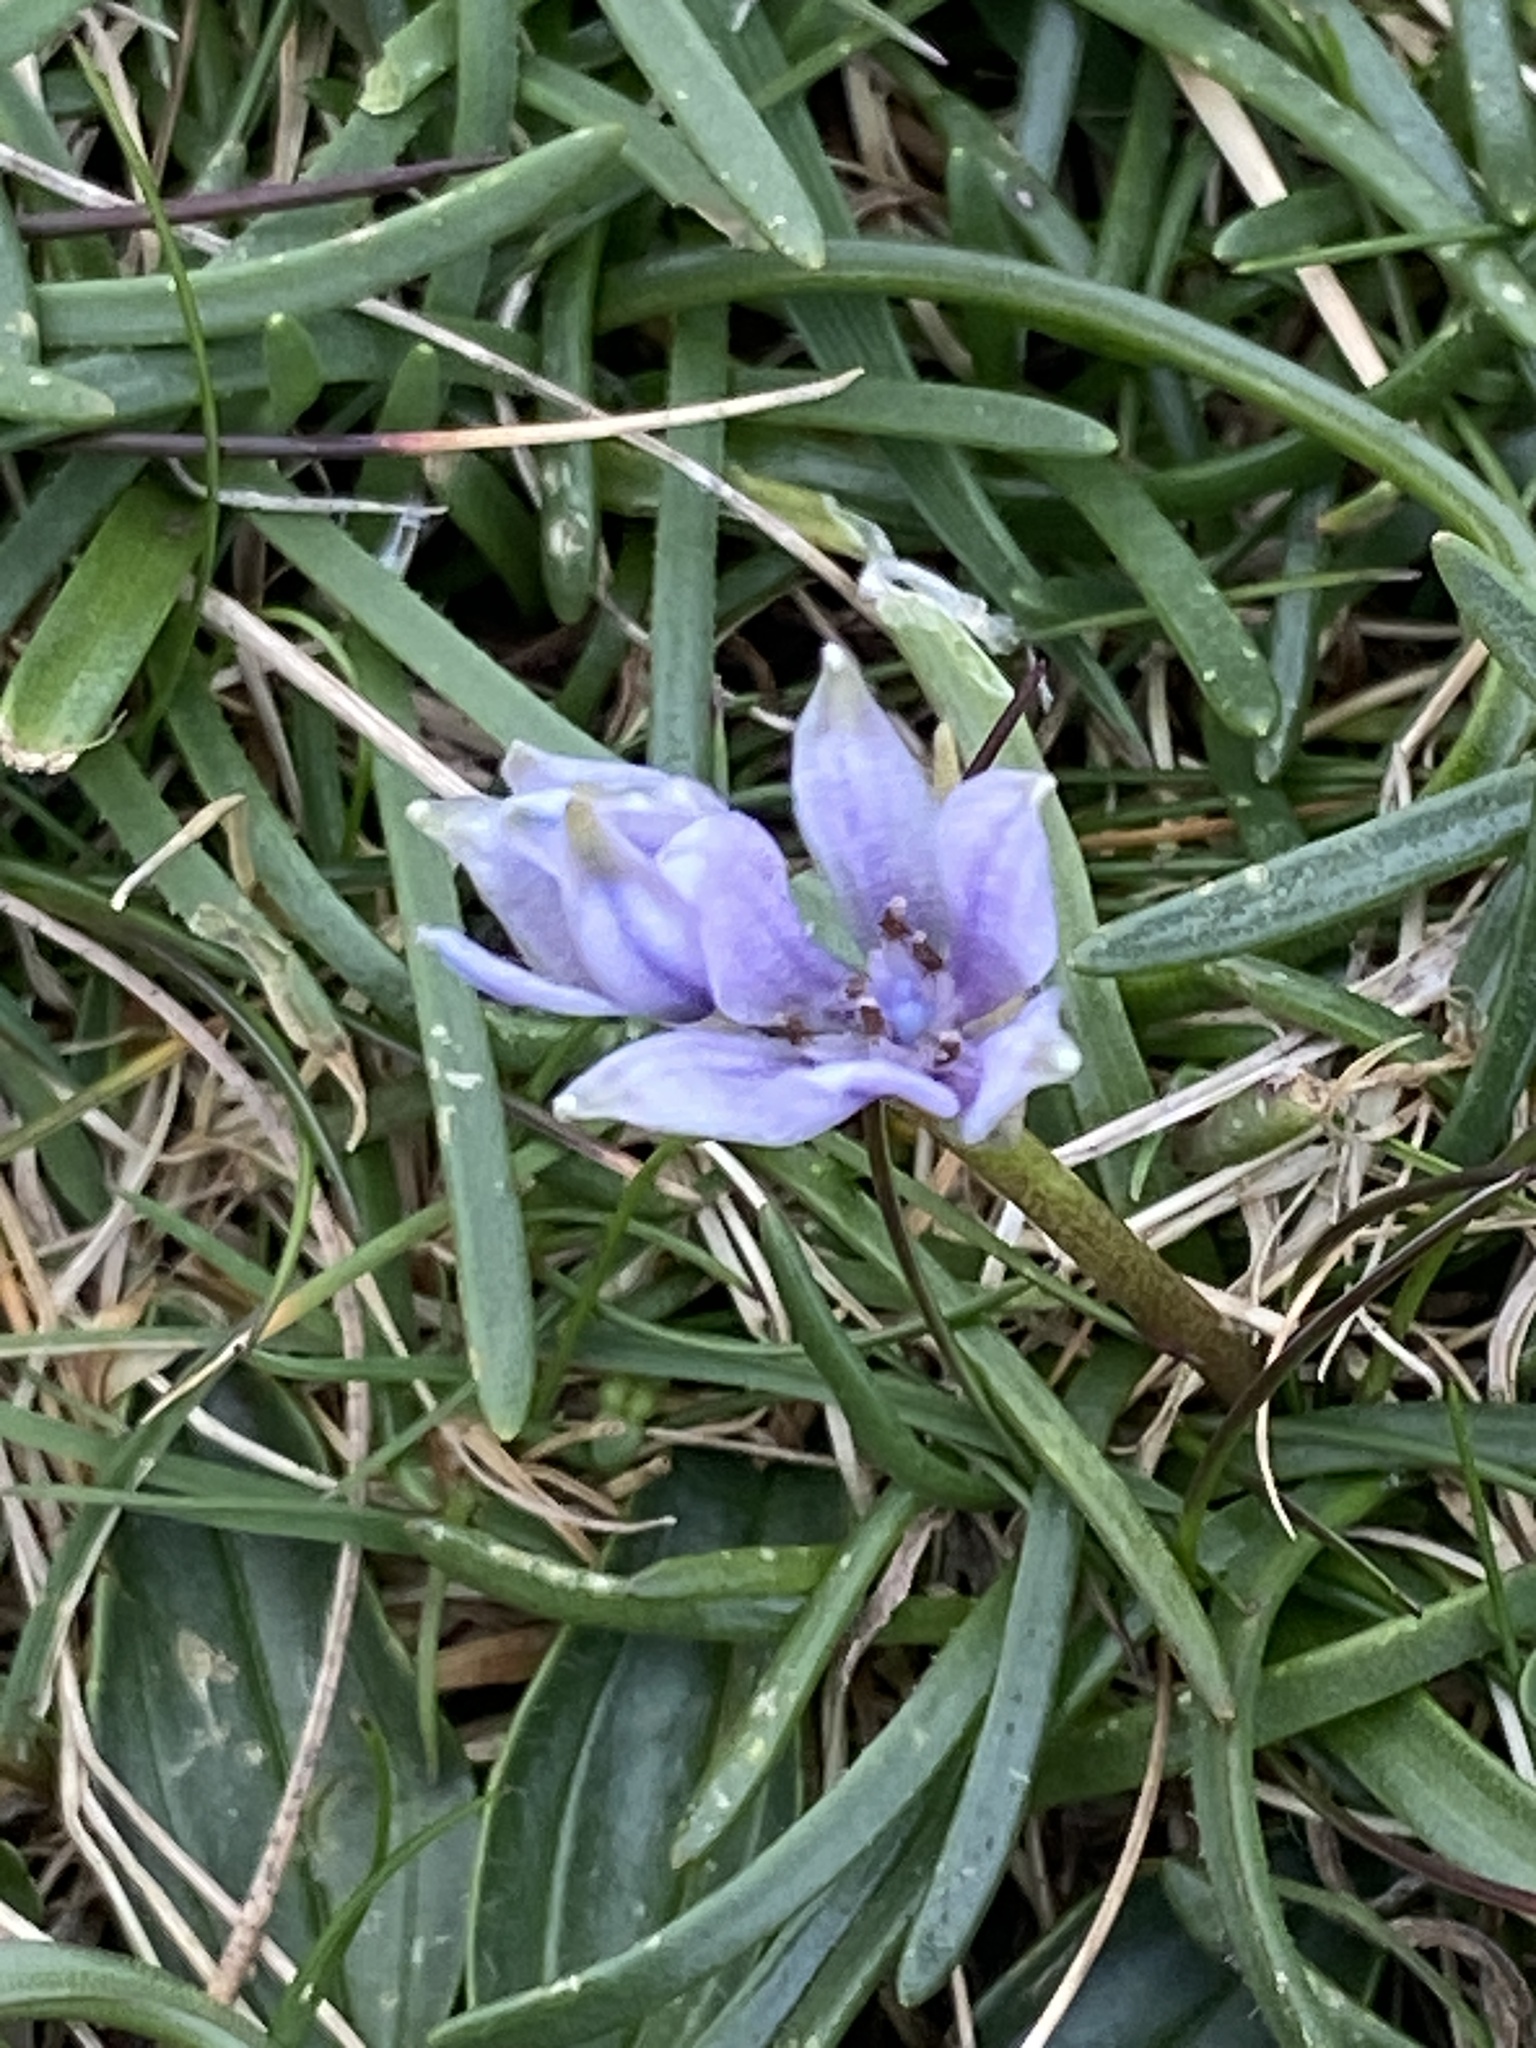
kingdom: Plantae
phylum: Tracheophyta
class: Liliopsida
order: Asparagales
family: Asparagaceae
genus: Scilla
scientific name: Scilla verna
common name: Spring squill
